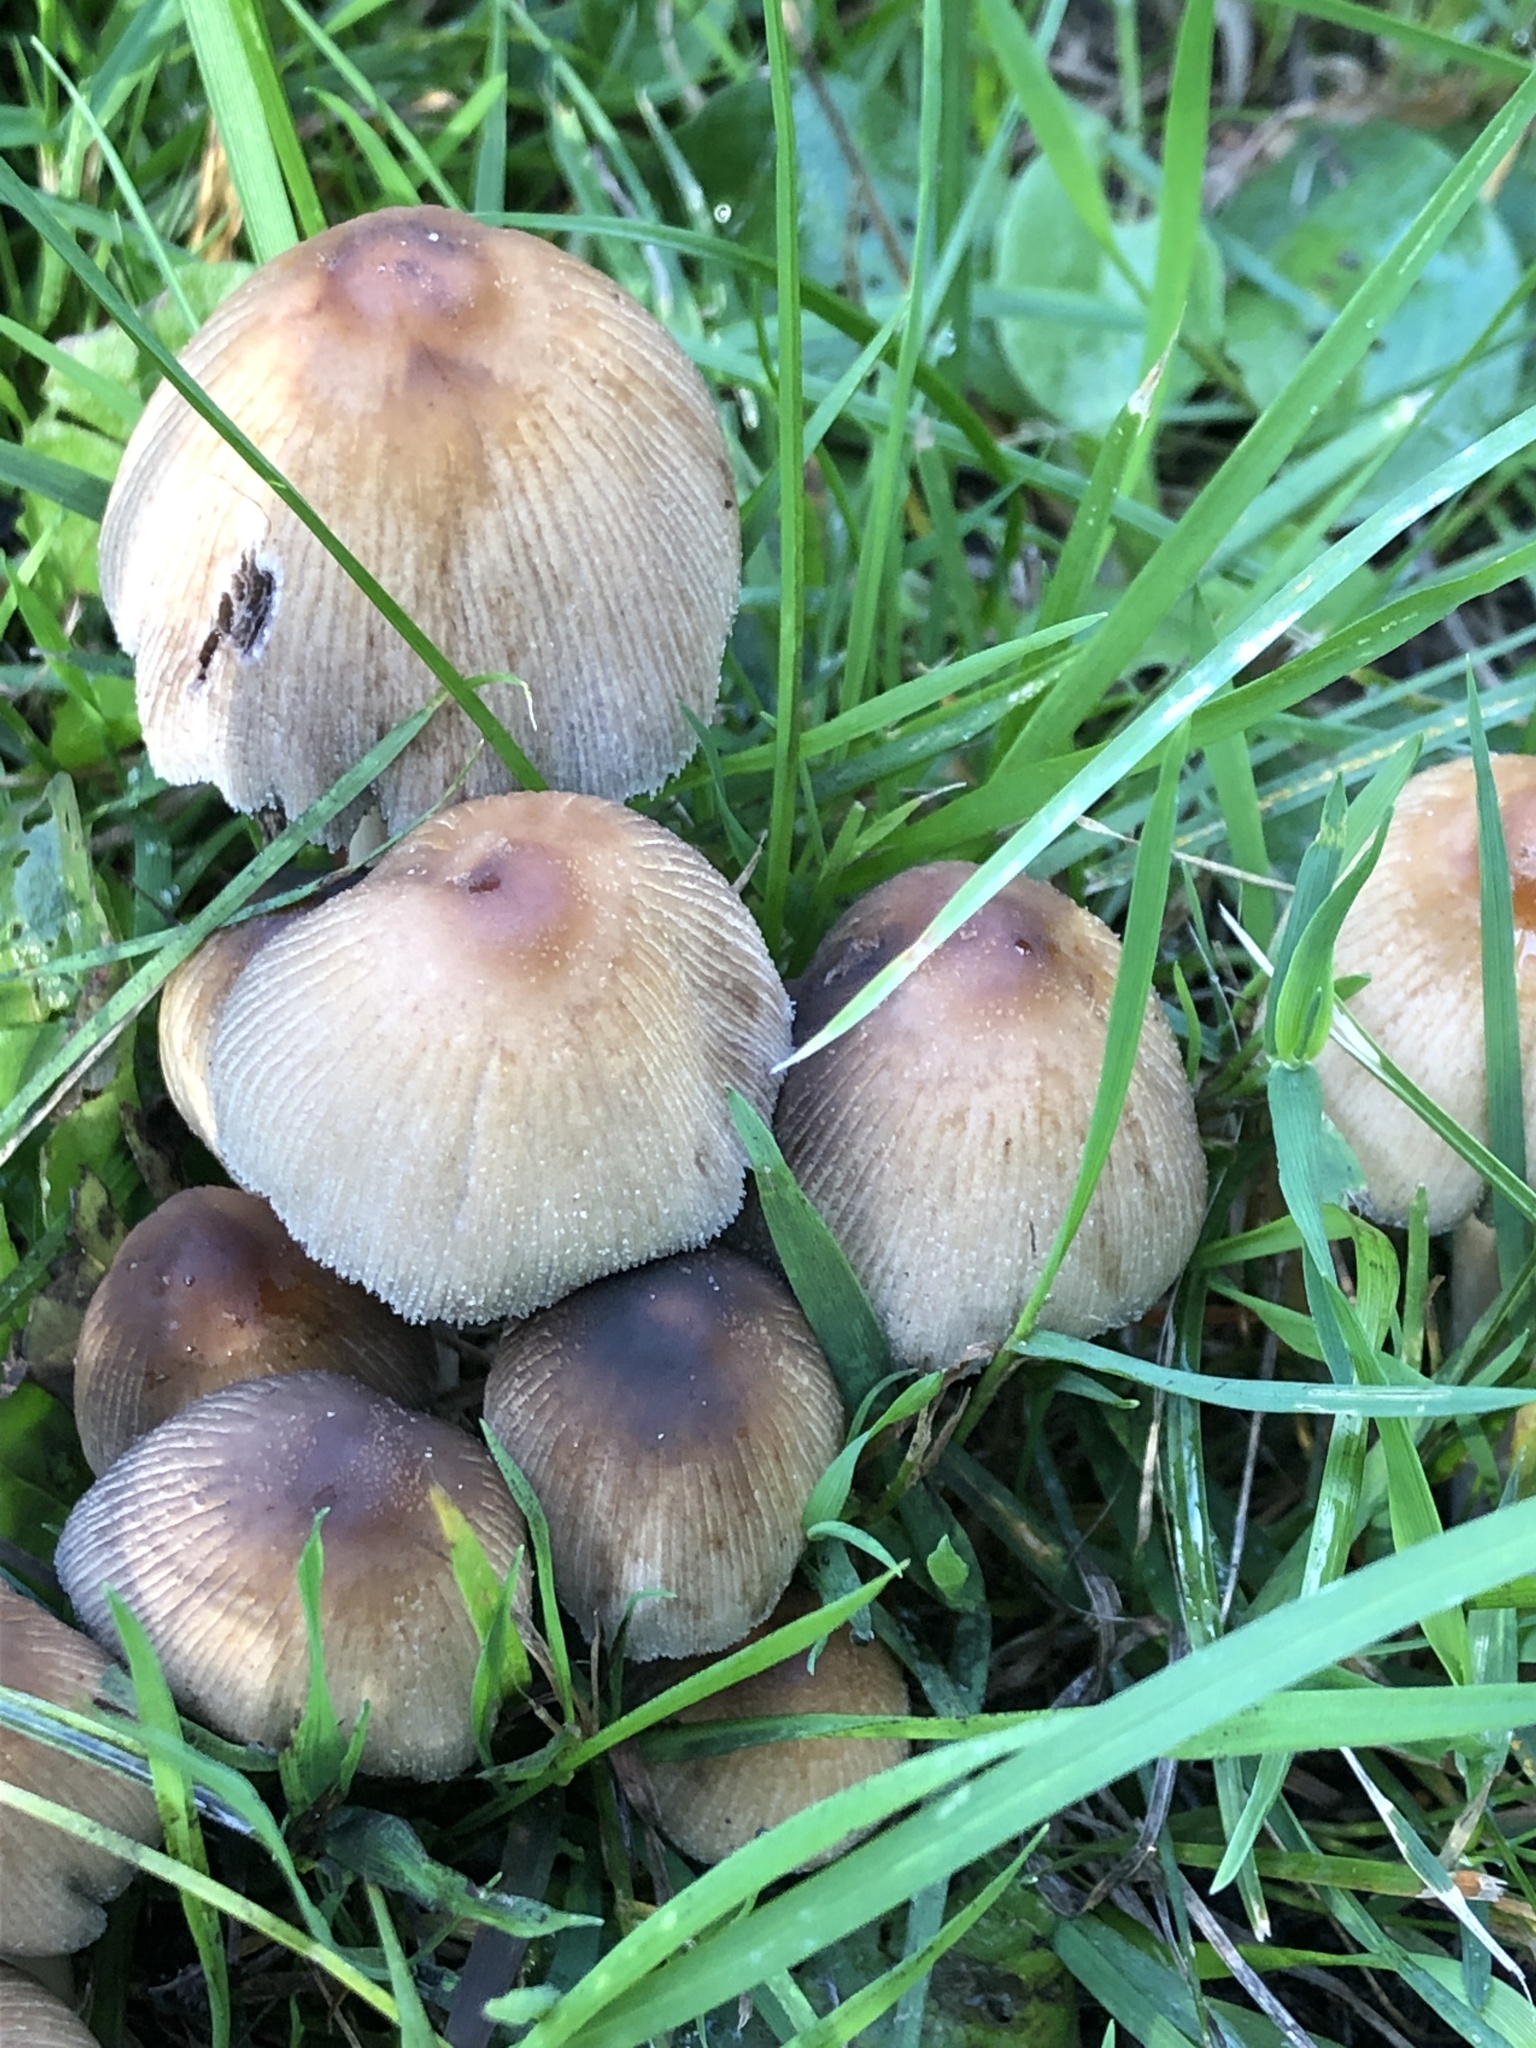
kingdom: Fungi
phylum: Basidiomycota
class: Agaricomycetes
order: Agaricales
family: Psathyrellaceae
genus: Coprinellus
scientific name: Coprinellus micaceus
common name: Glistening ink-cap
